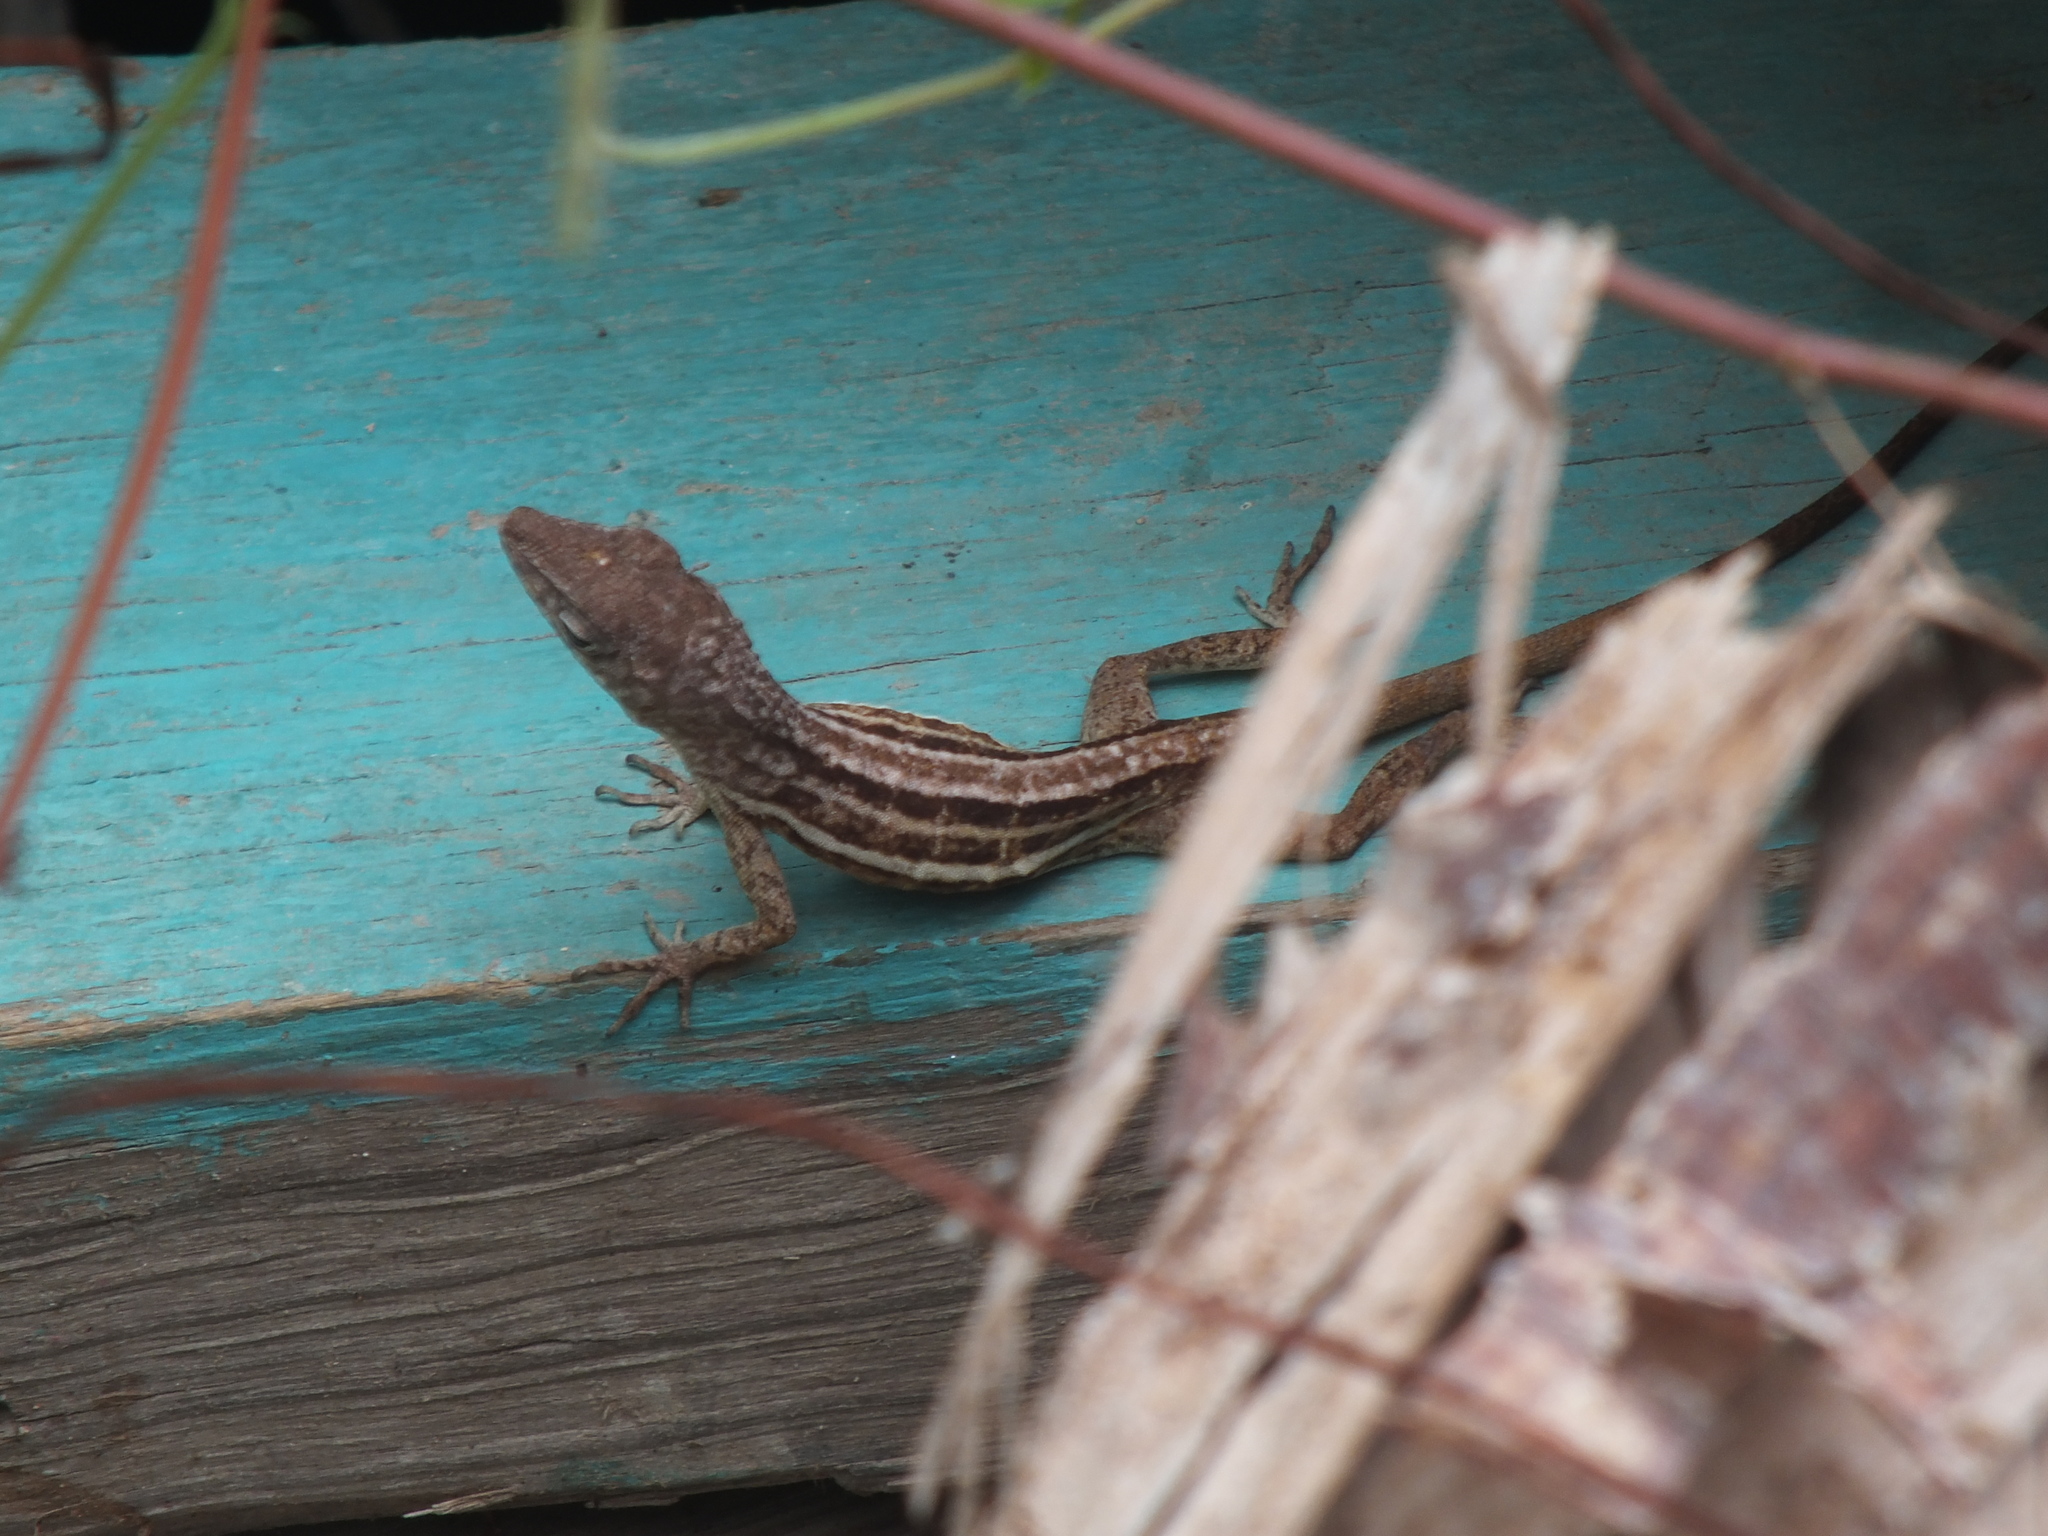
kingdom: Animalia
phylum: Chordata
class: Squamata
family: Dactyloidae
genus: Anolis
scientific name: Anolis lineatopus
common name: Stripefoot anole
